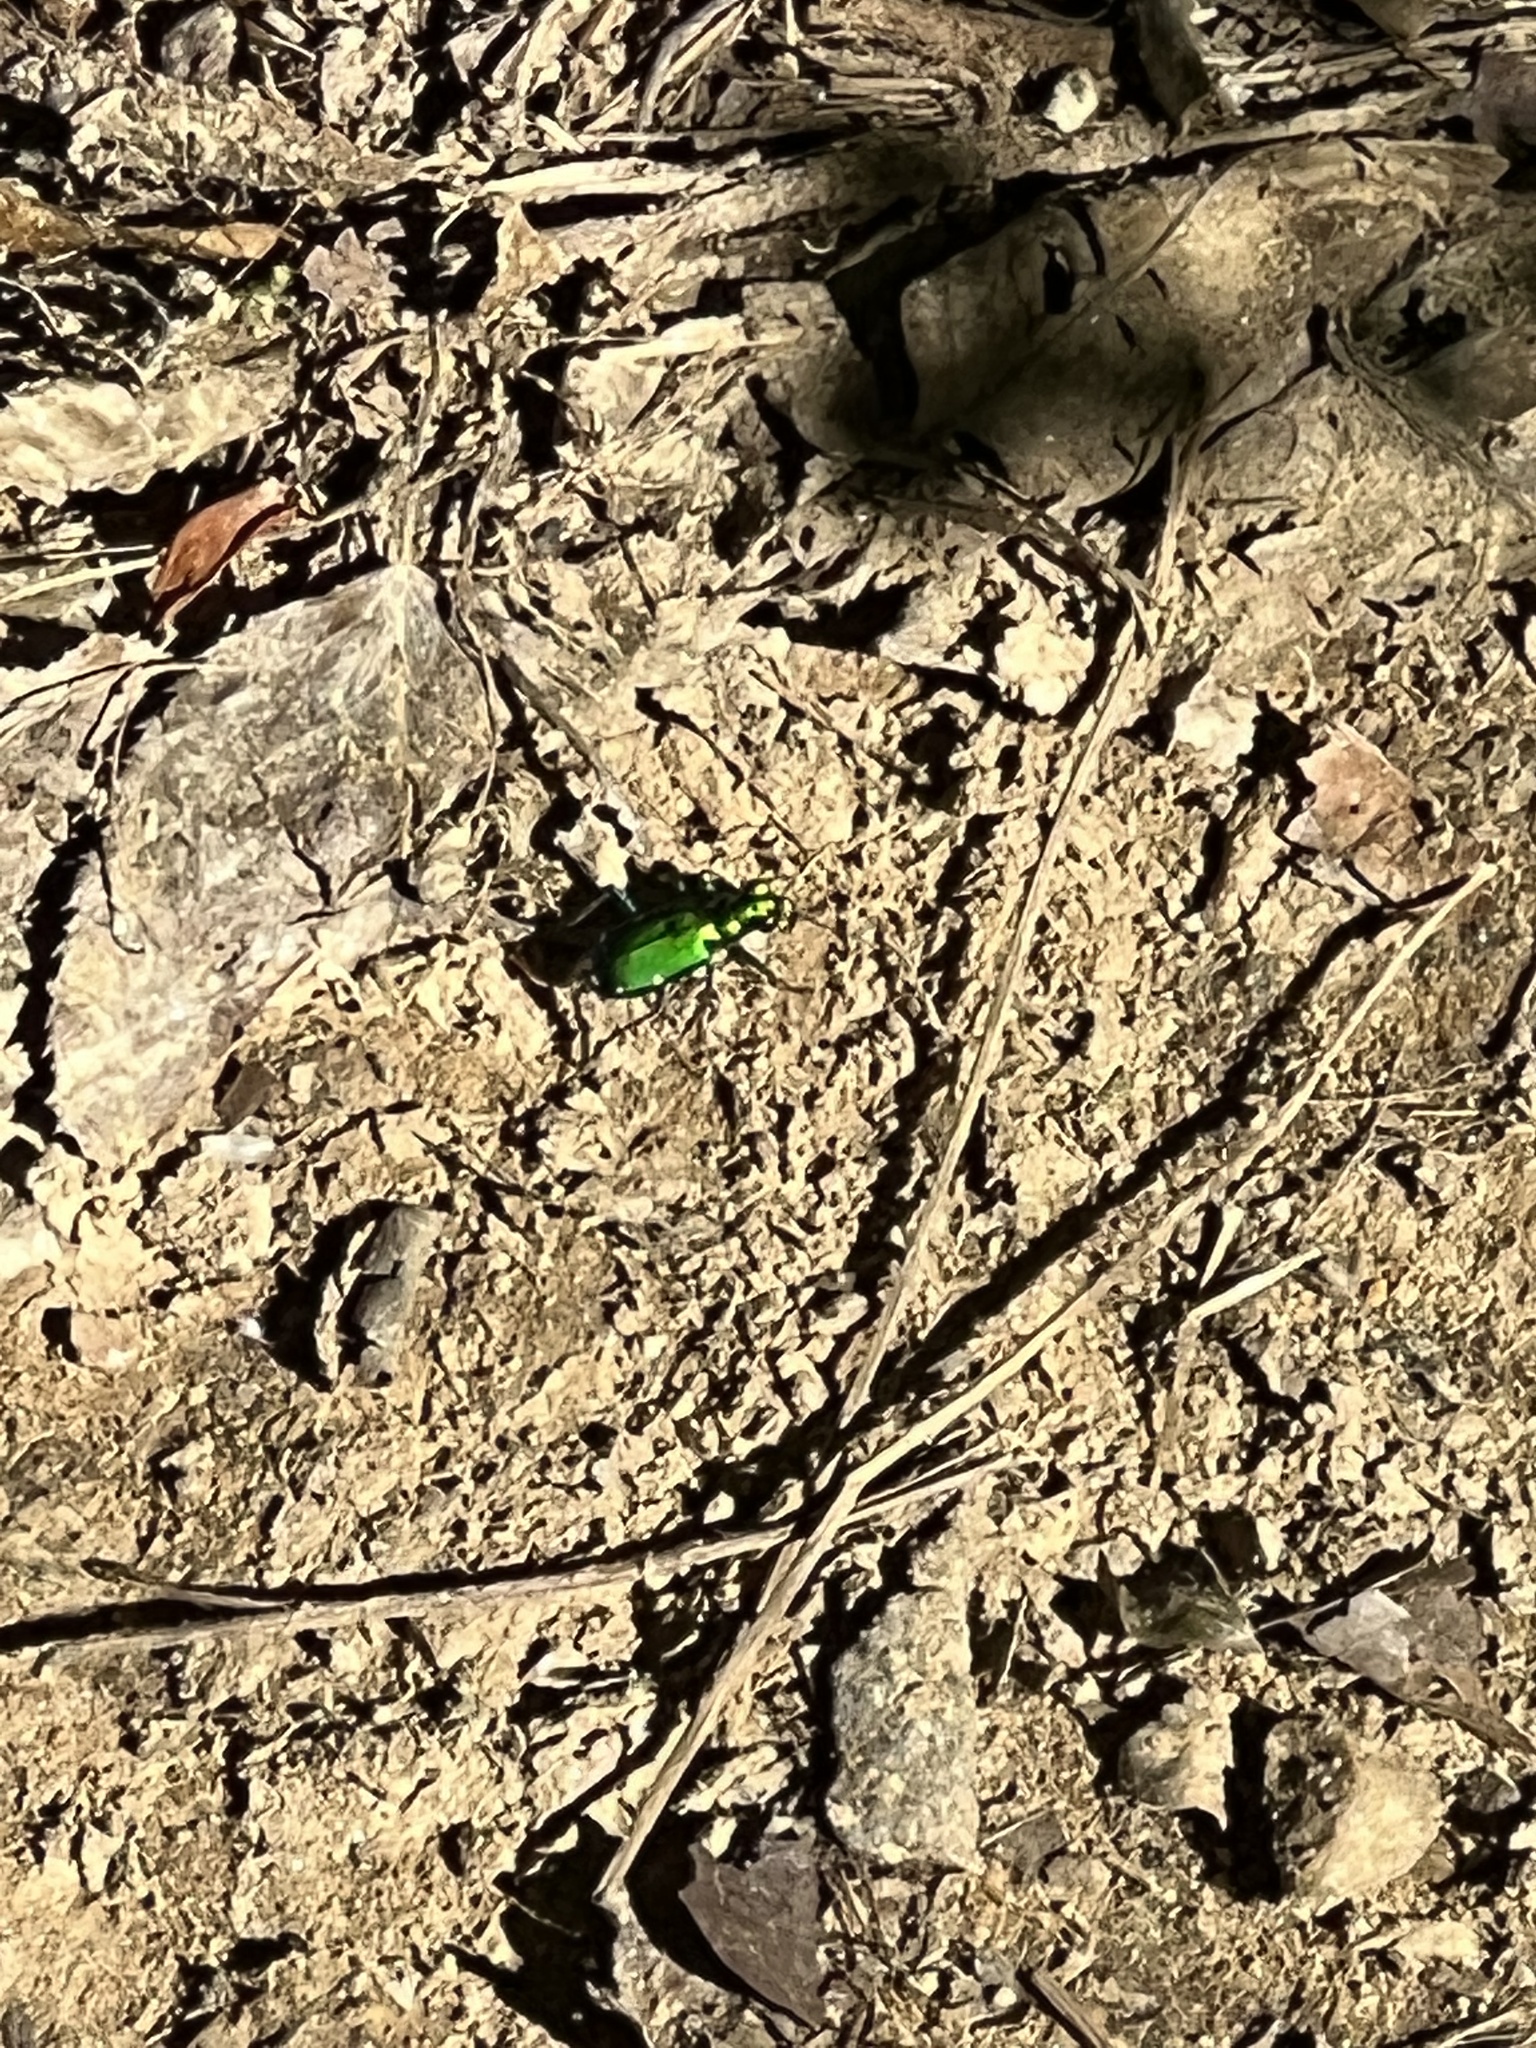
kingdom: Animalia
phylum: Arthropoda
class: Insecta
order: Coleoptera
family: Carabidae
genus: Cicindela
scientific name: Cicindela sexguttata
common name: Six-spotted tiger beetle
